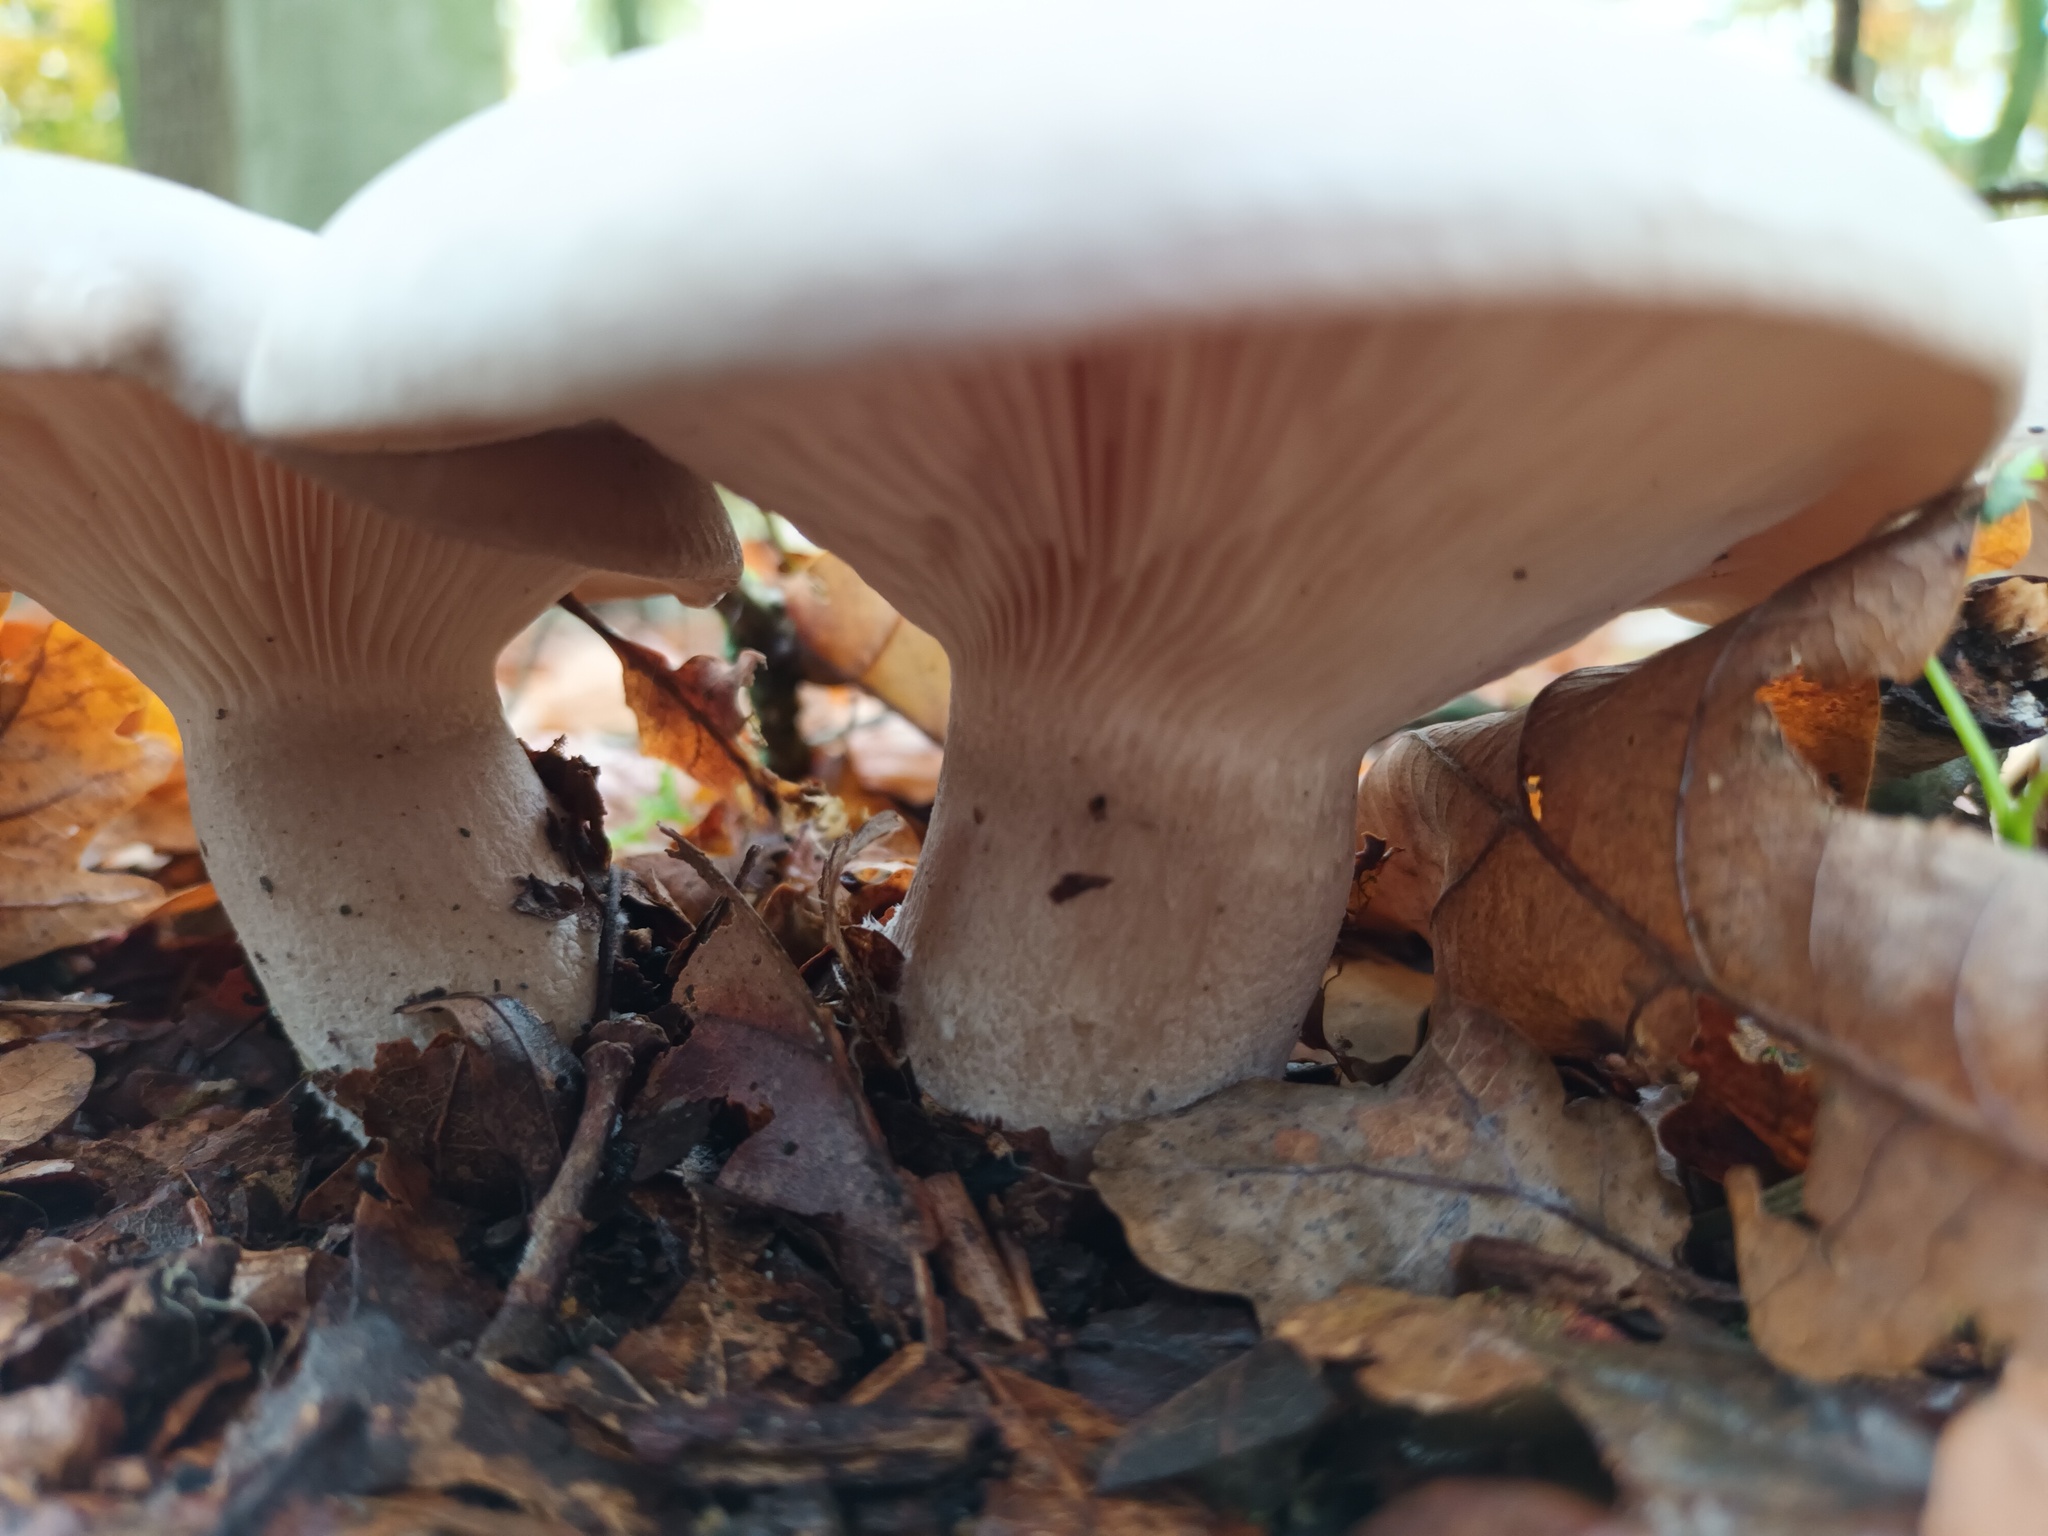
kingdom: Fungi
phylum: Basidiomycota
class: Agaricomycetes
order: Agaricales
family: Tricholomataceae
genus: Clitocybe
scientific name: Clitocybe nebularis
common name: Clouded agaric
